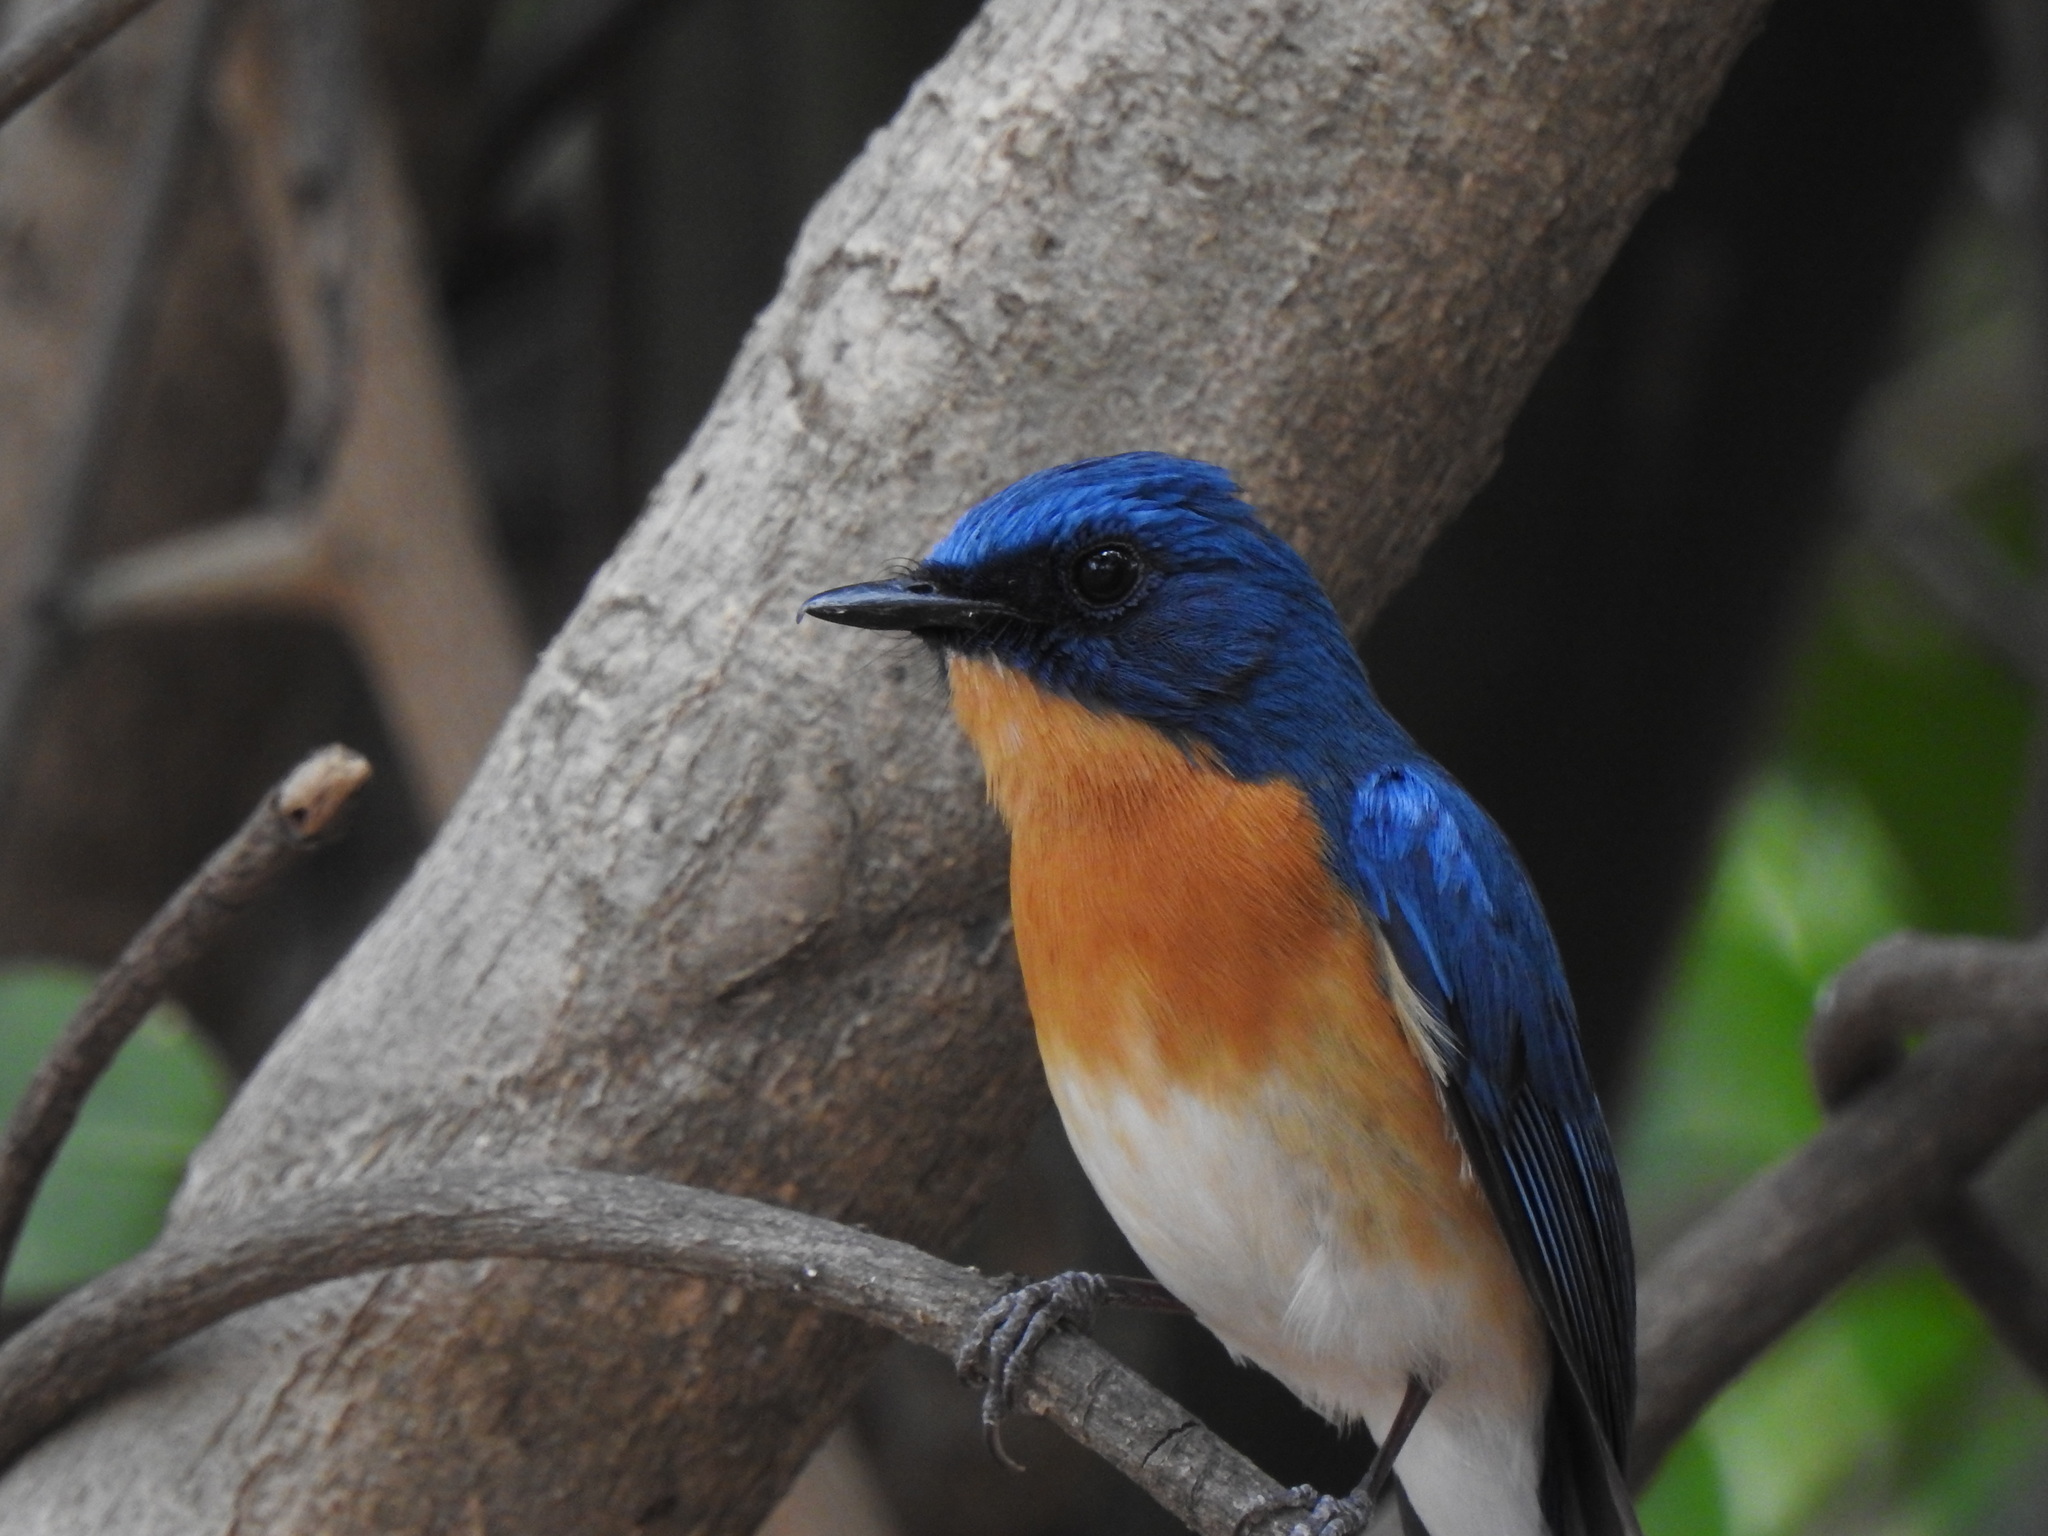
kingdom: Animalia
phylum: Chordata
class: Aves
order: Passeriformes
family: Muscicapidae
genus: Cyornis
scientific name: Cyornis tickelliae
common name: Tickell's blue flycatcher
